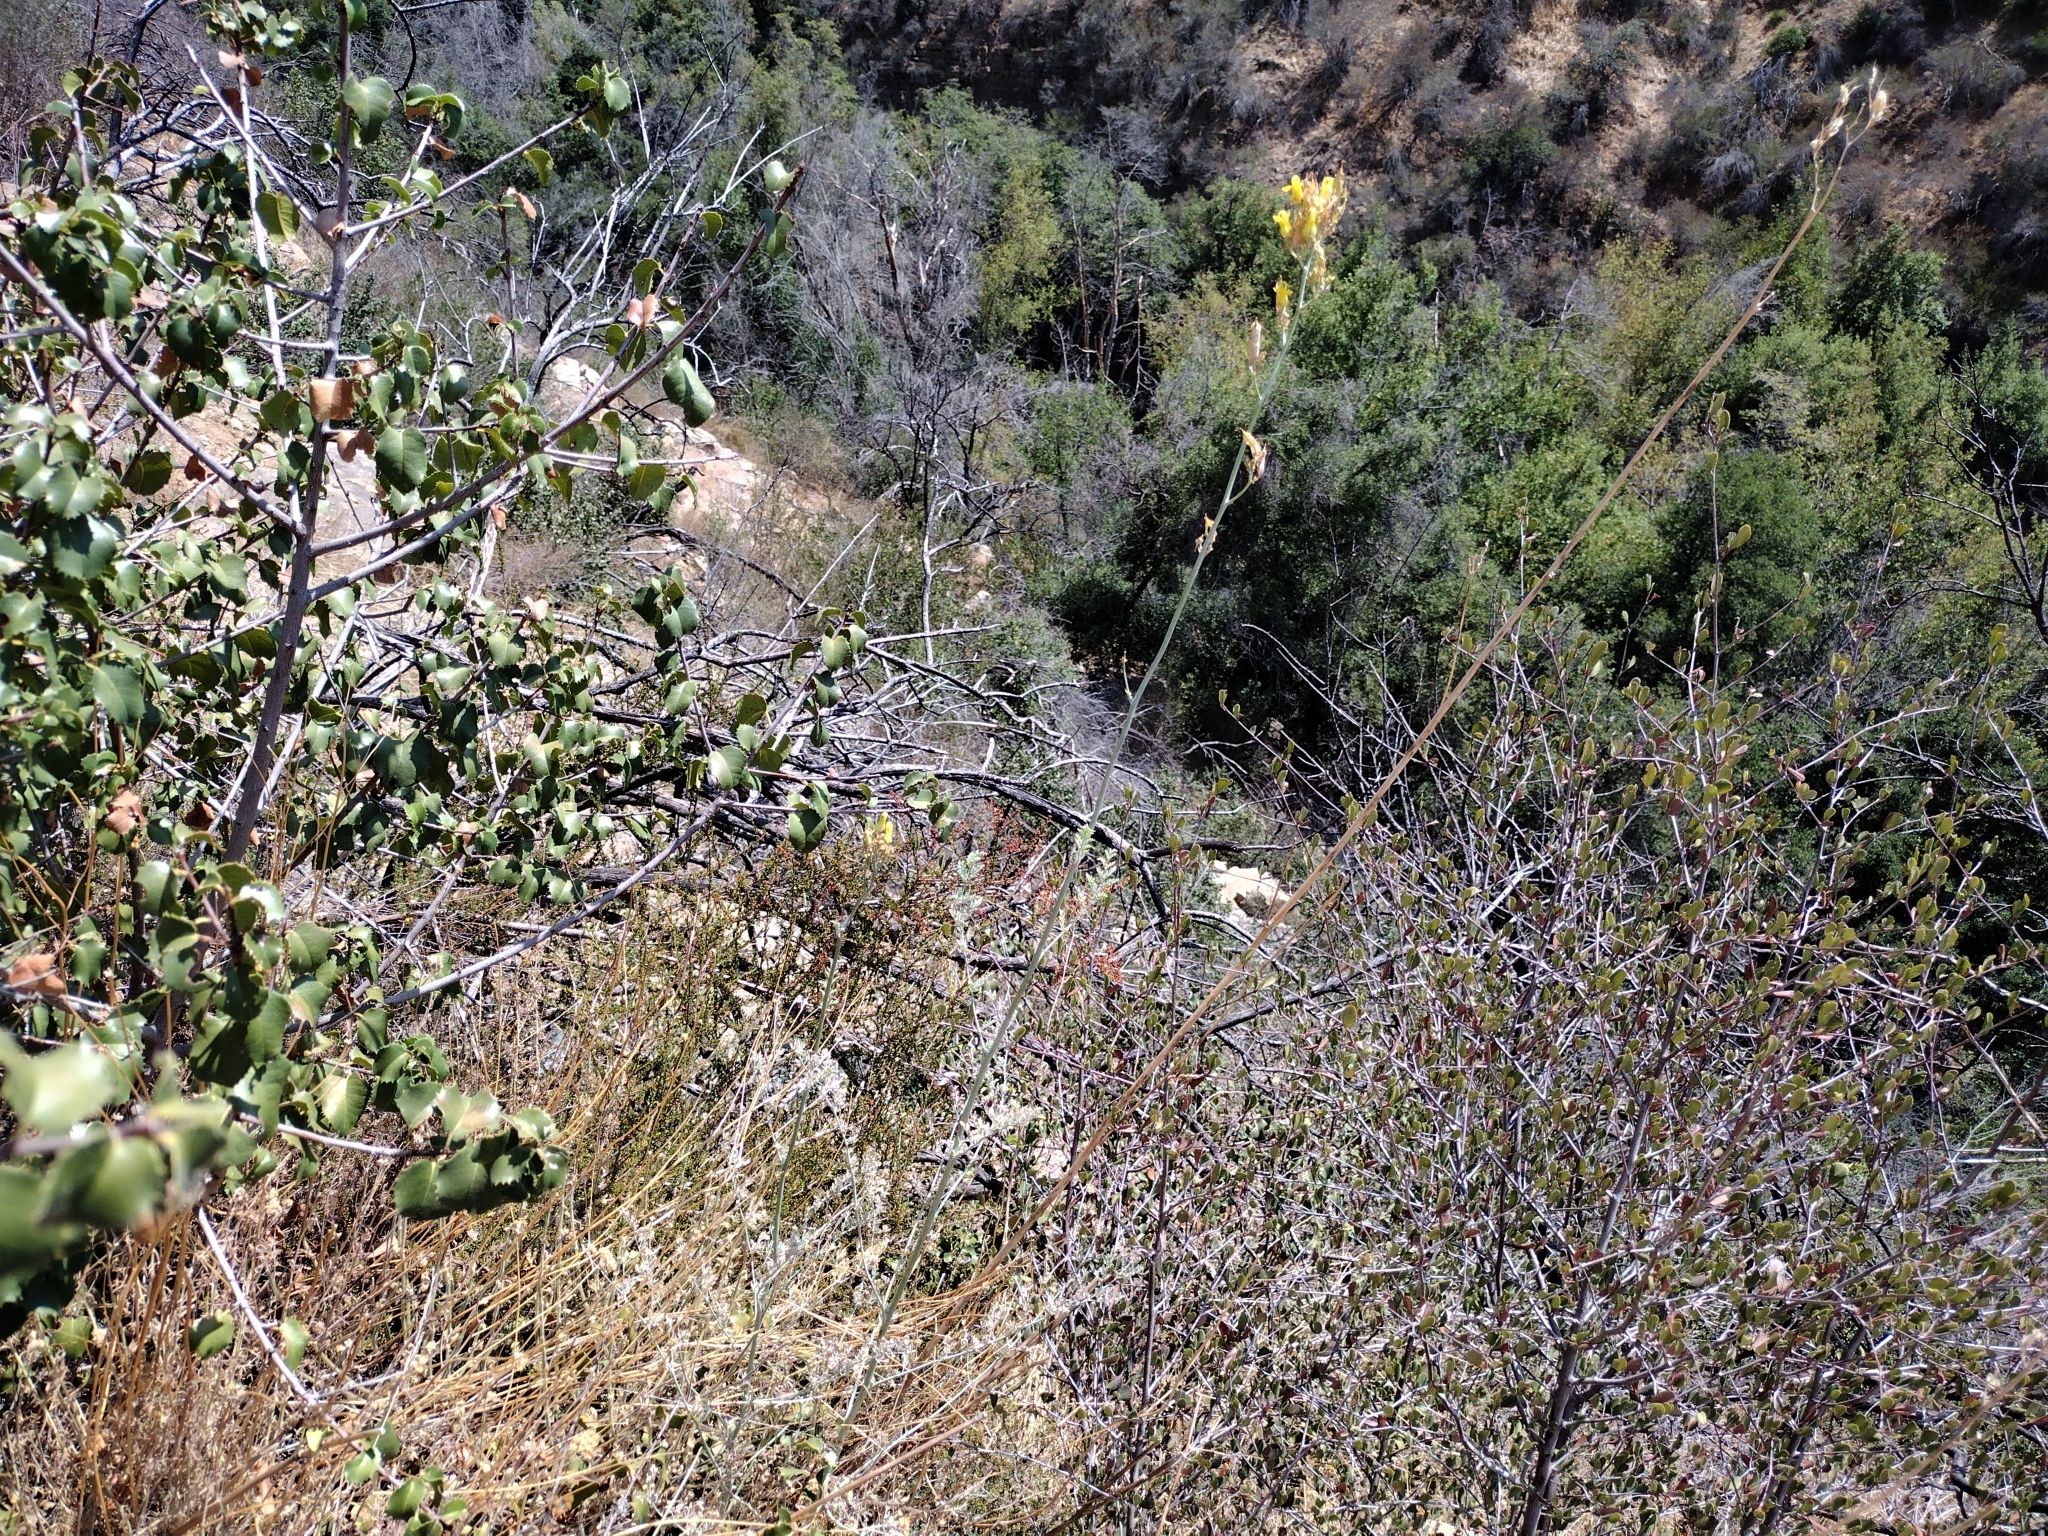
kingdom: Plantae
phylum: Tracheophyta
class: Magnoliopsida
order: Ranunculales
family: Papaveraceae
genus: Ehrendorferia
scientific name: Ehrendorferia chrysantha
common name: Golden eardrops
